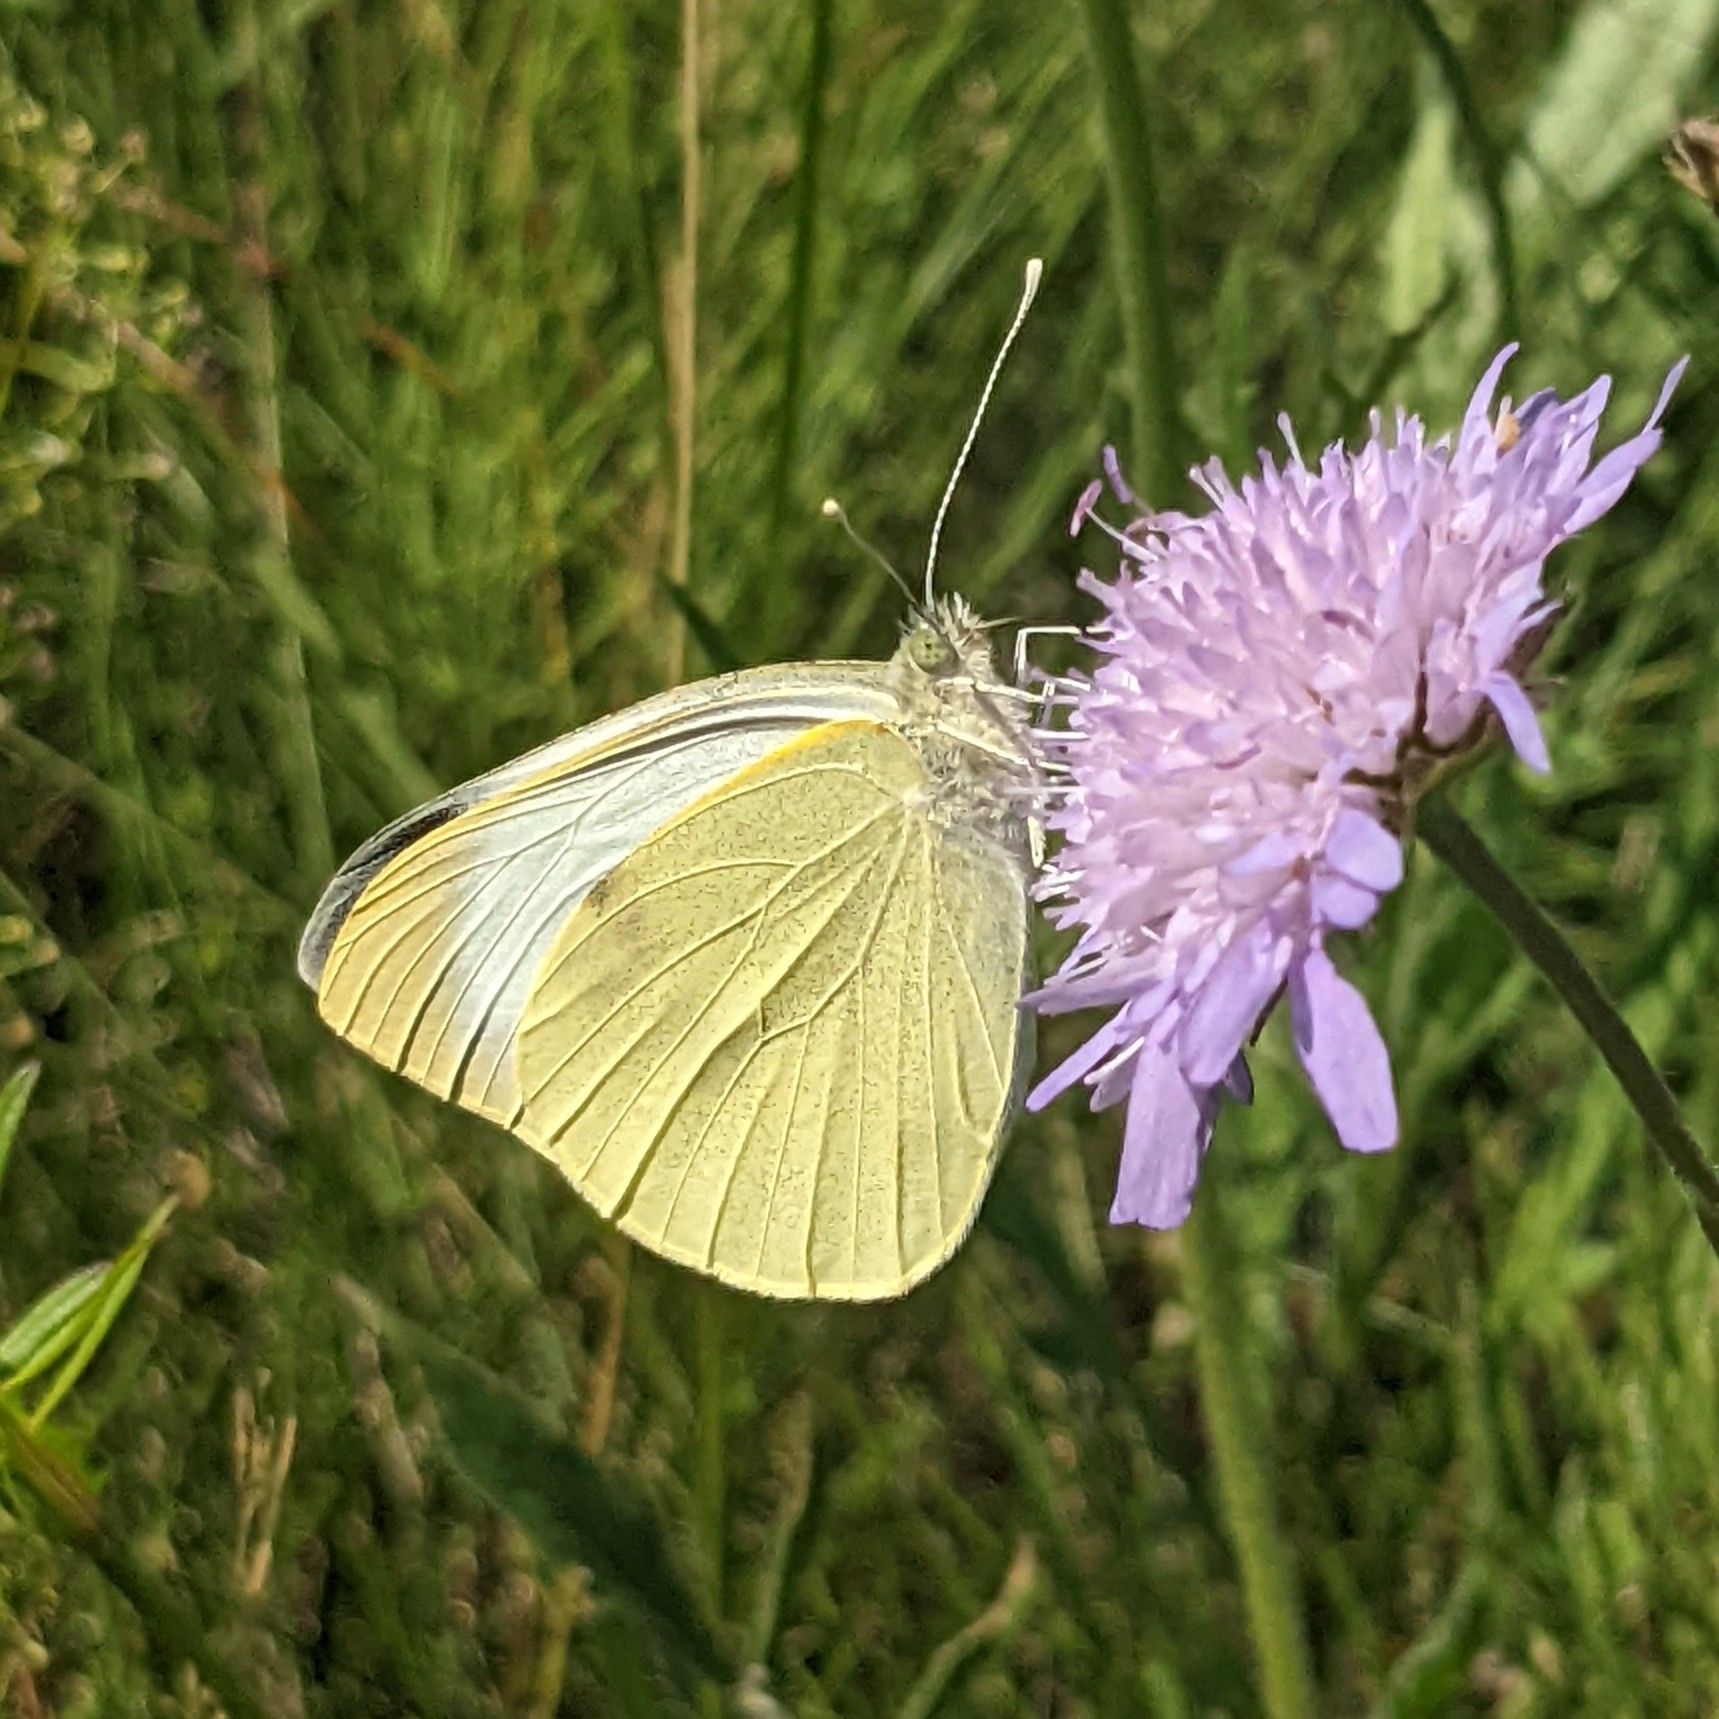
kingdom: Animalia
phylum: Arthropoda
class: Insecta
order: Lepidoptera
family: Pieridae
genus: Pieris
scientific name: Pieris brassicae
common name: Large white
